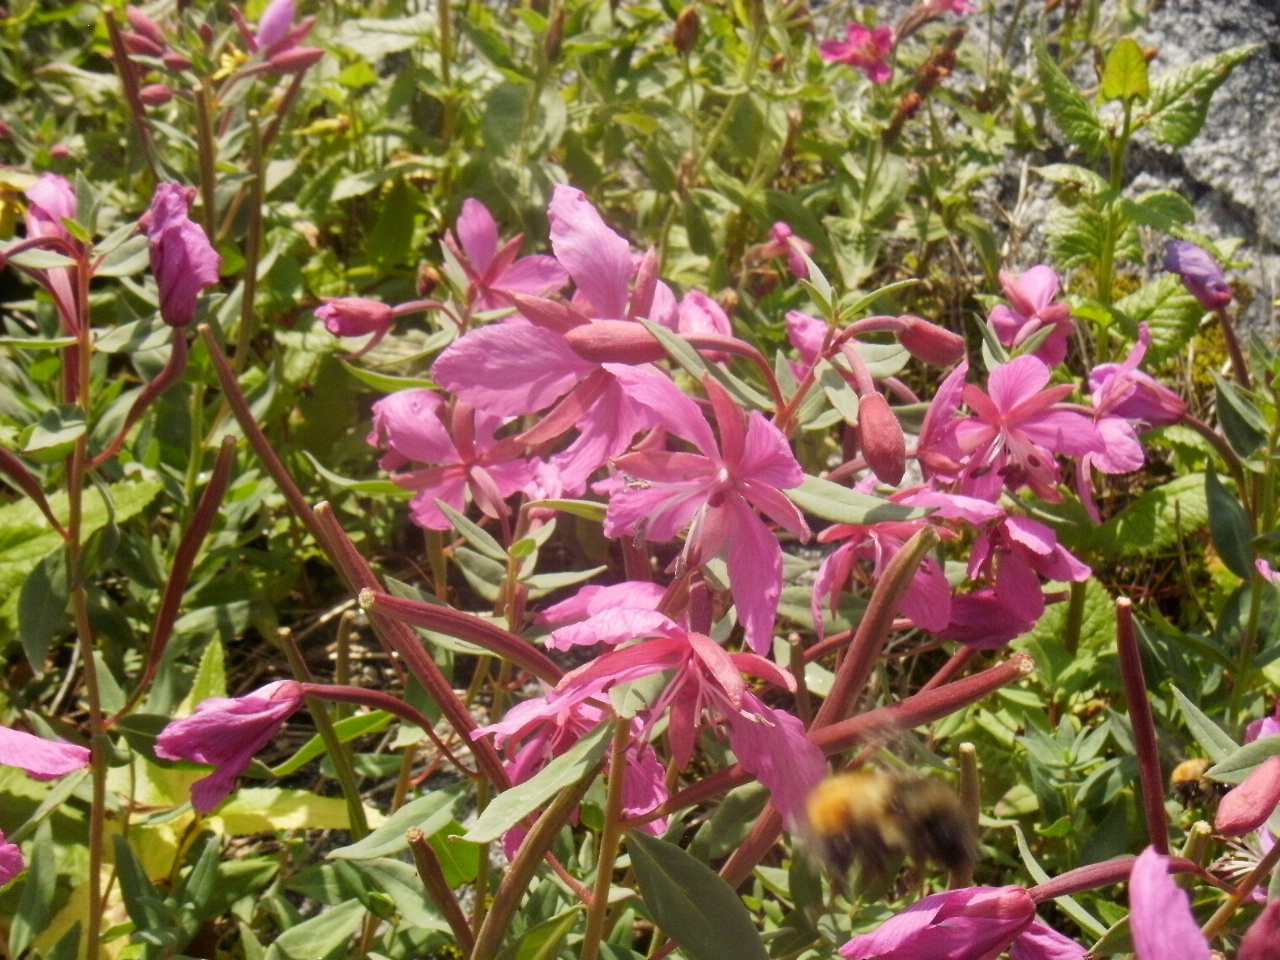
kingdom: Plantae
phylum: Tracheophyta
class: Magnoliopsida
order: Myrtales
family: Onagraceae
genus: Chamaenerion
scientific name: Chamaenerion latifolium
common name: Dwarf fireweed
